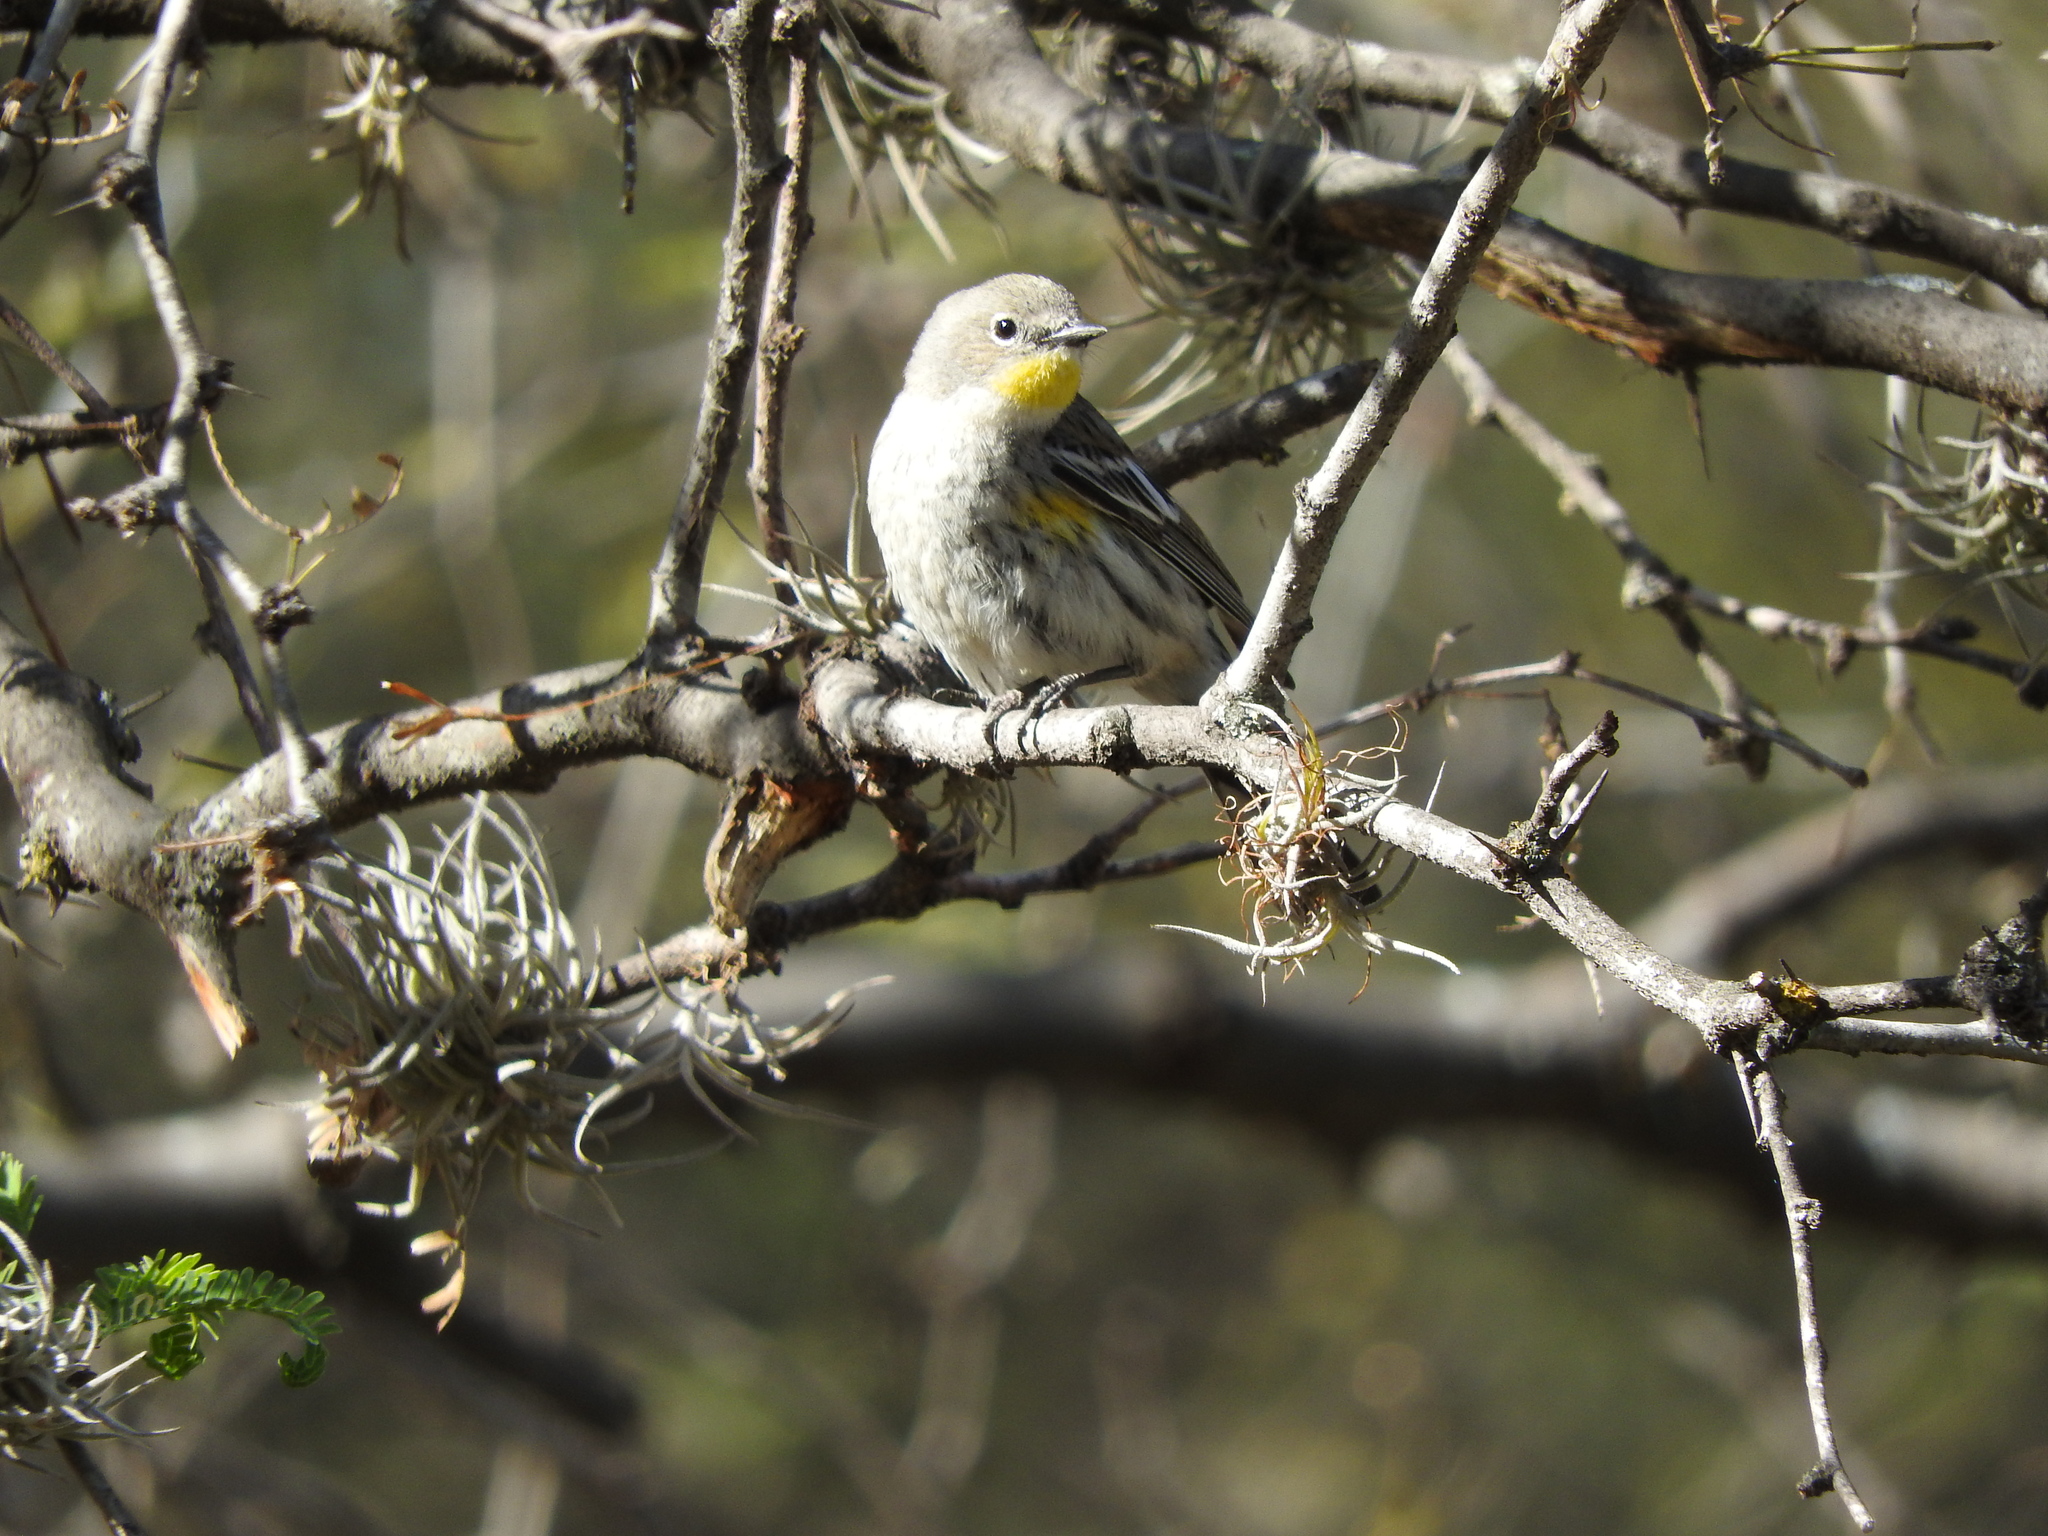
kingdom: Animalia
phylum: Chordata
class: Aves
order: Passeriformes
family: Parulidae
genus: Setophaga
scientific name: Setophaga coronata
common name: Myrtle warbler
